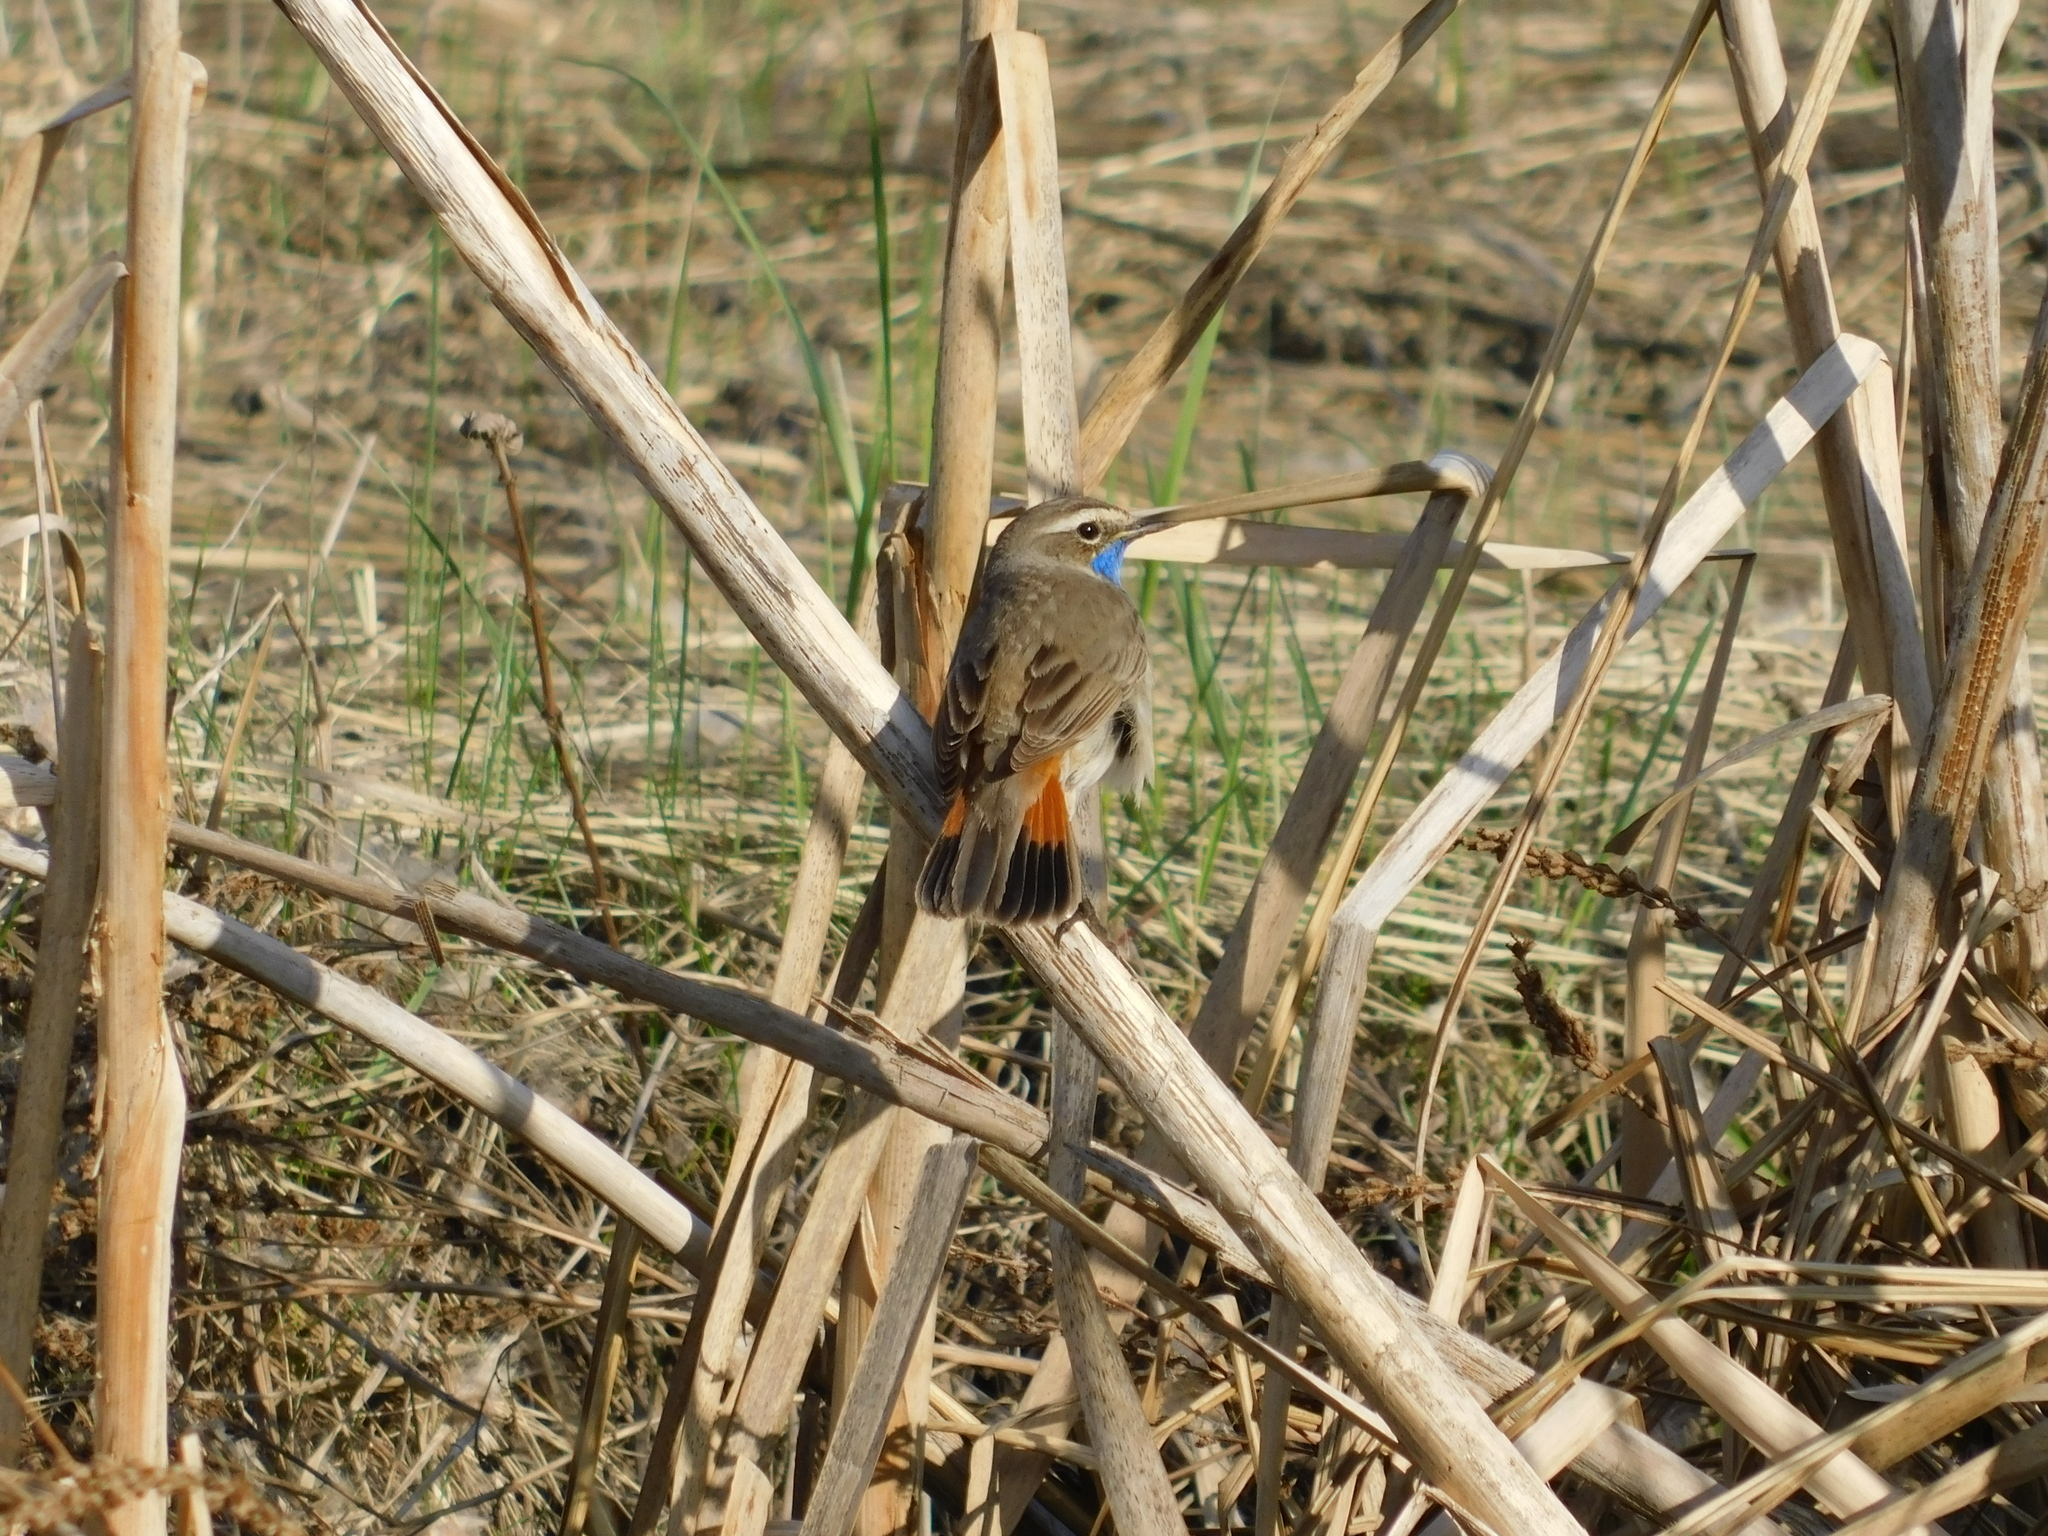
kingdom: Animalia
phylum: Chordata
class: Aves
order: Passeriformes
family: Muscicapidae
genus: Luscinia
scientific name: Luscinia svecica
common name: Bluethroat
